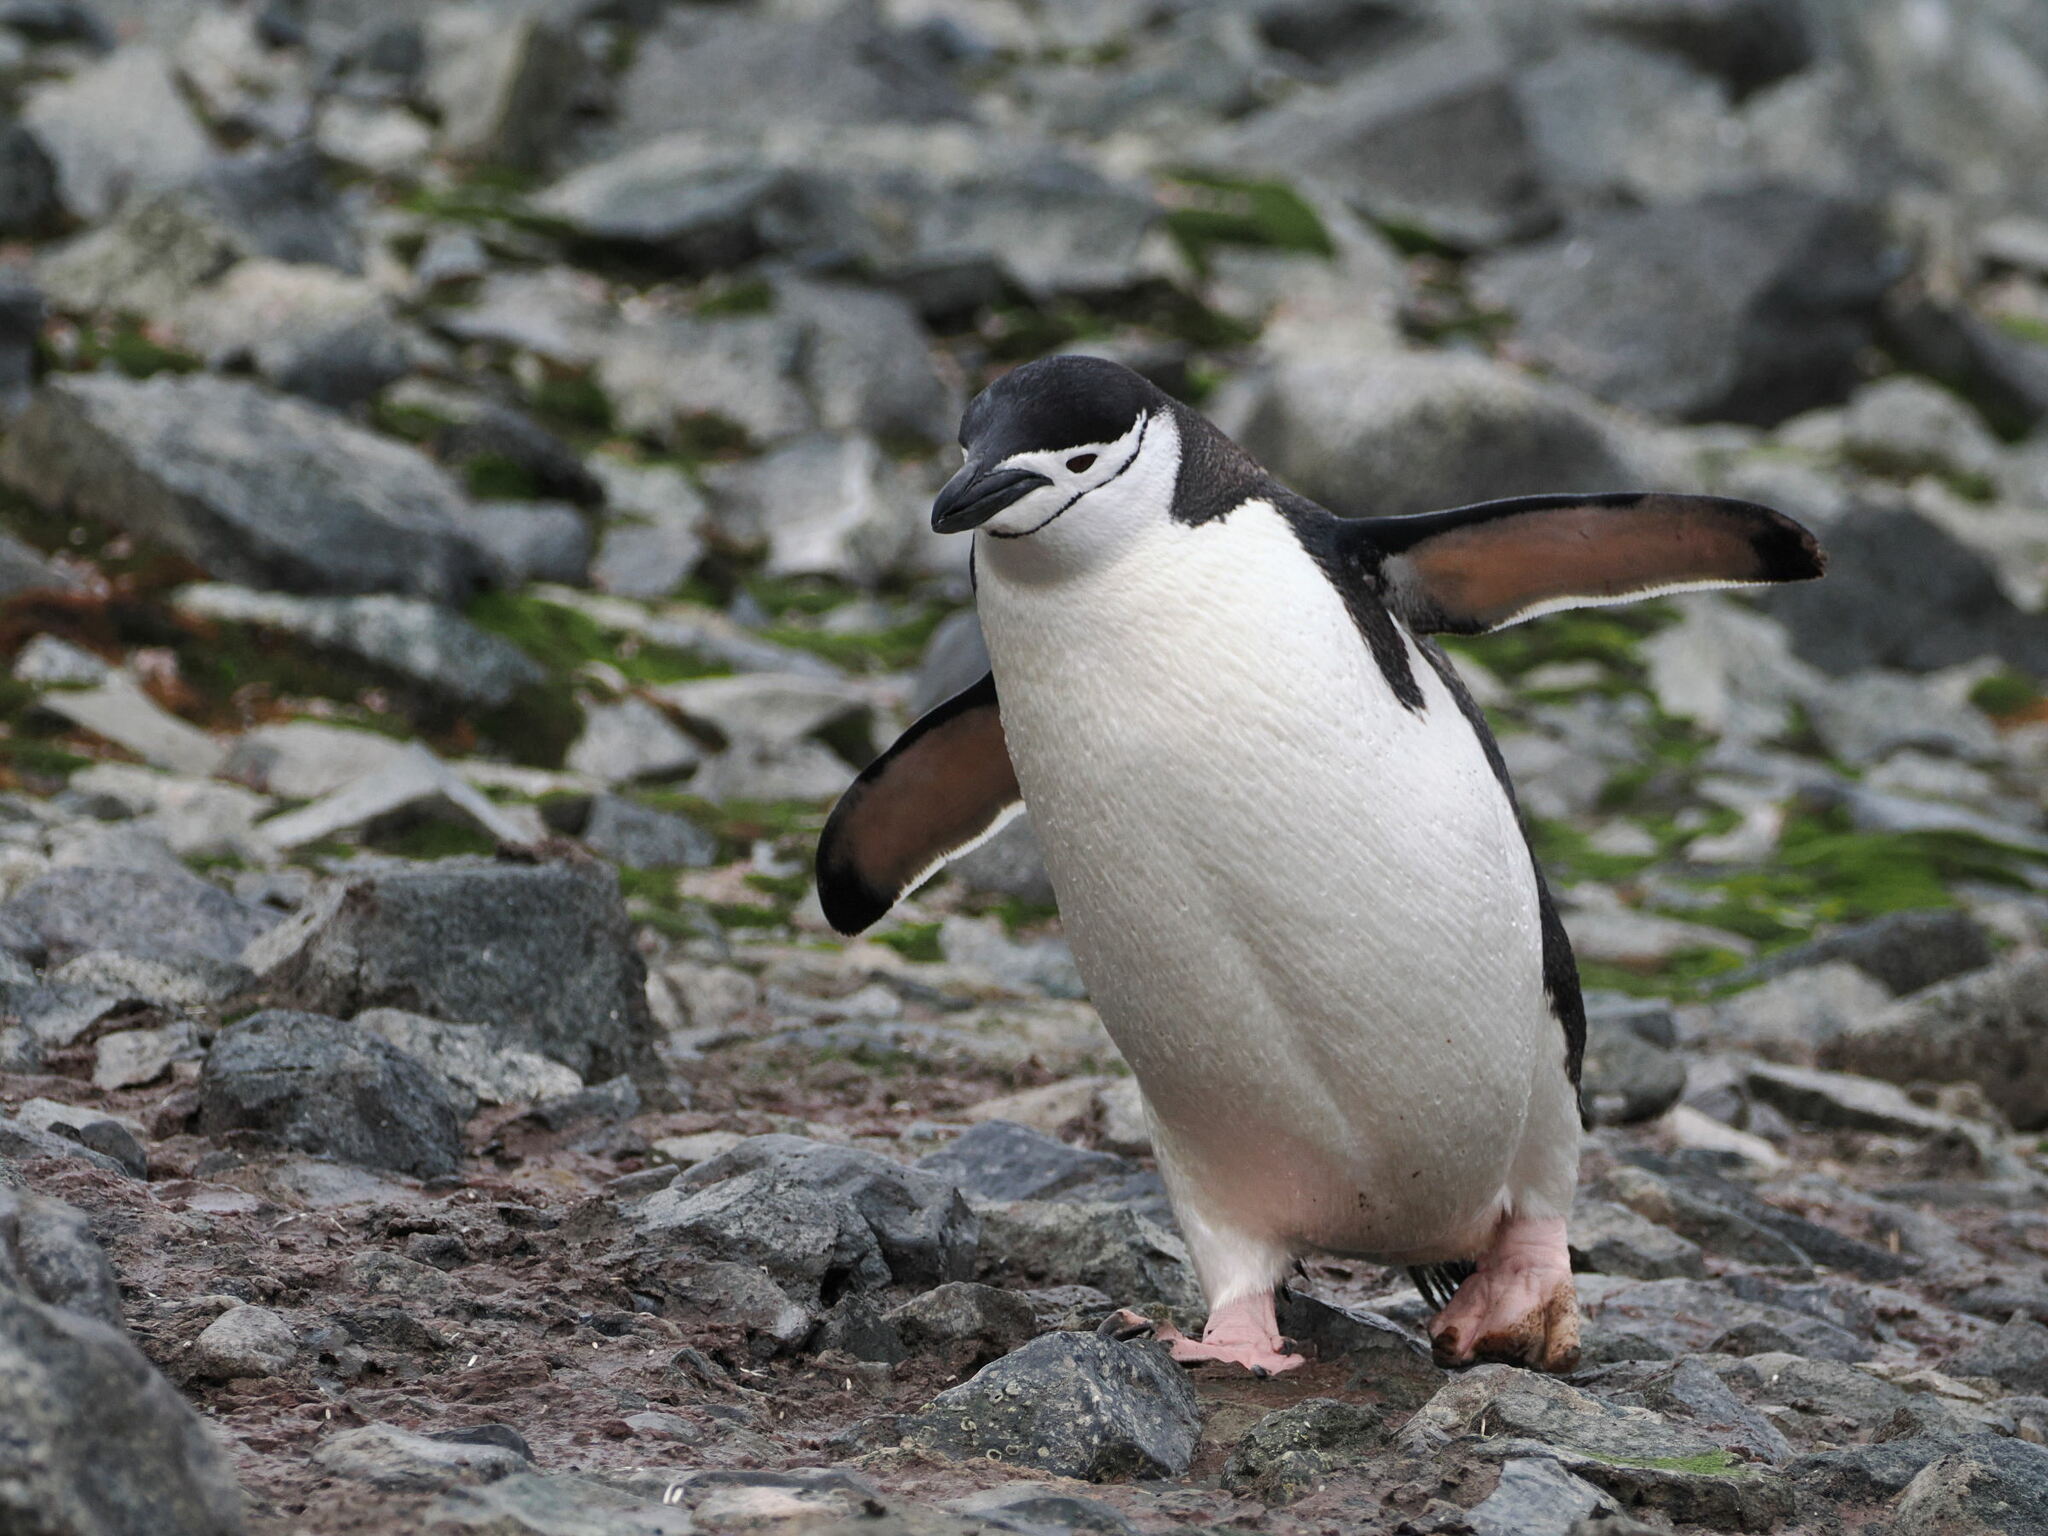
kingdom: Animalia
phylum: Chordata
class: Aves
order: Sphenisciformes
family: Spheniscidae
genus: Pygoscelis
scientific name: Pygoscelis antarcticus
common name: Chinstrap penguin
